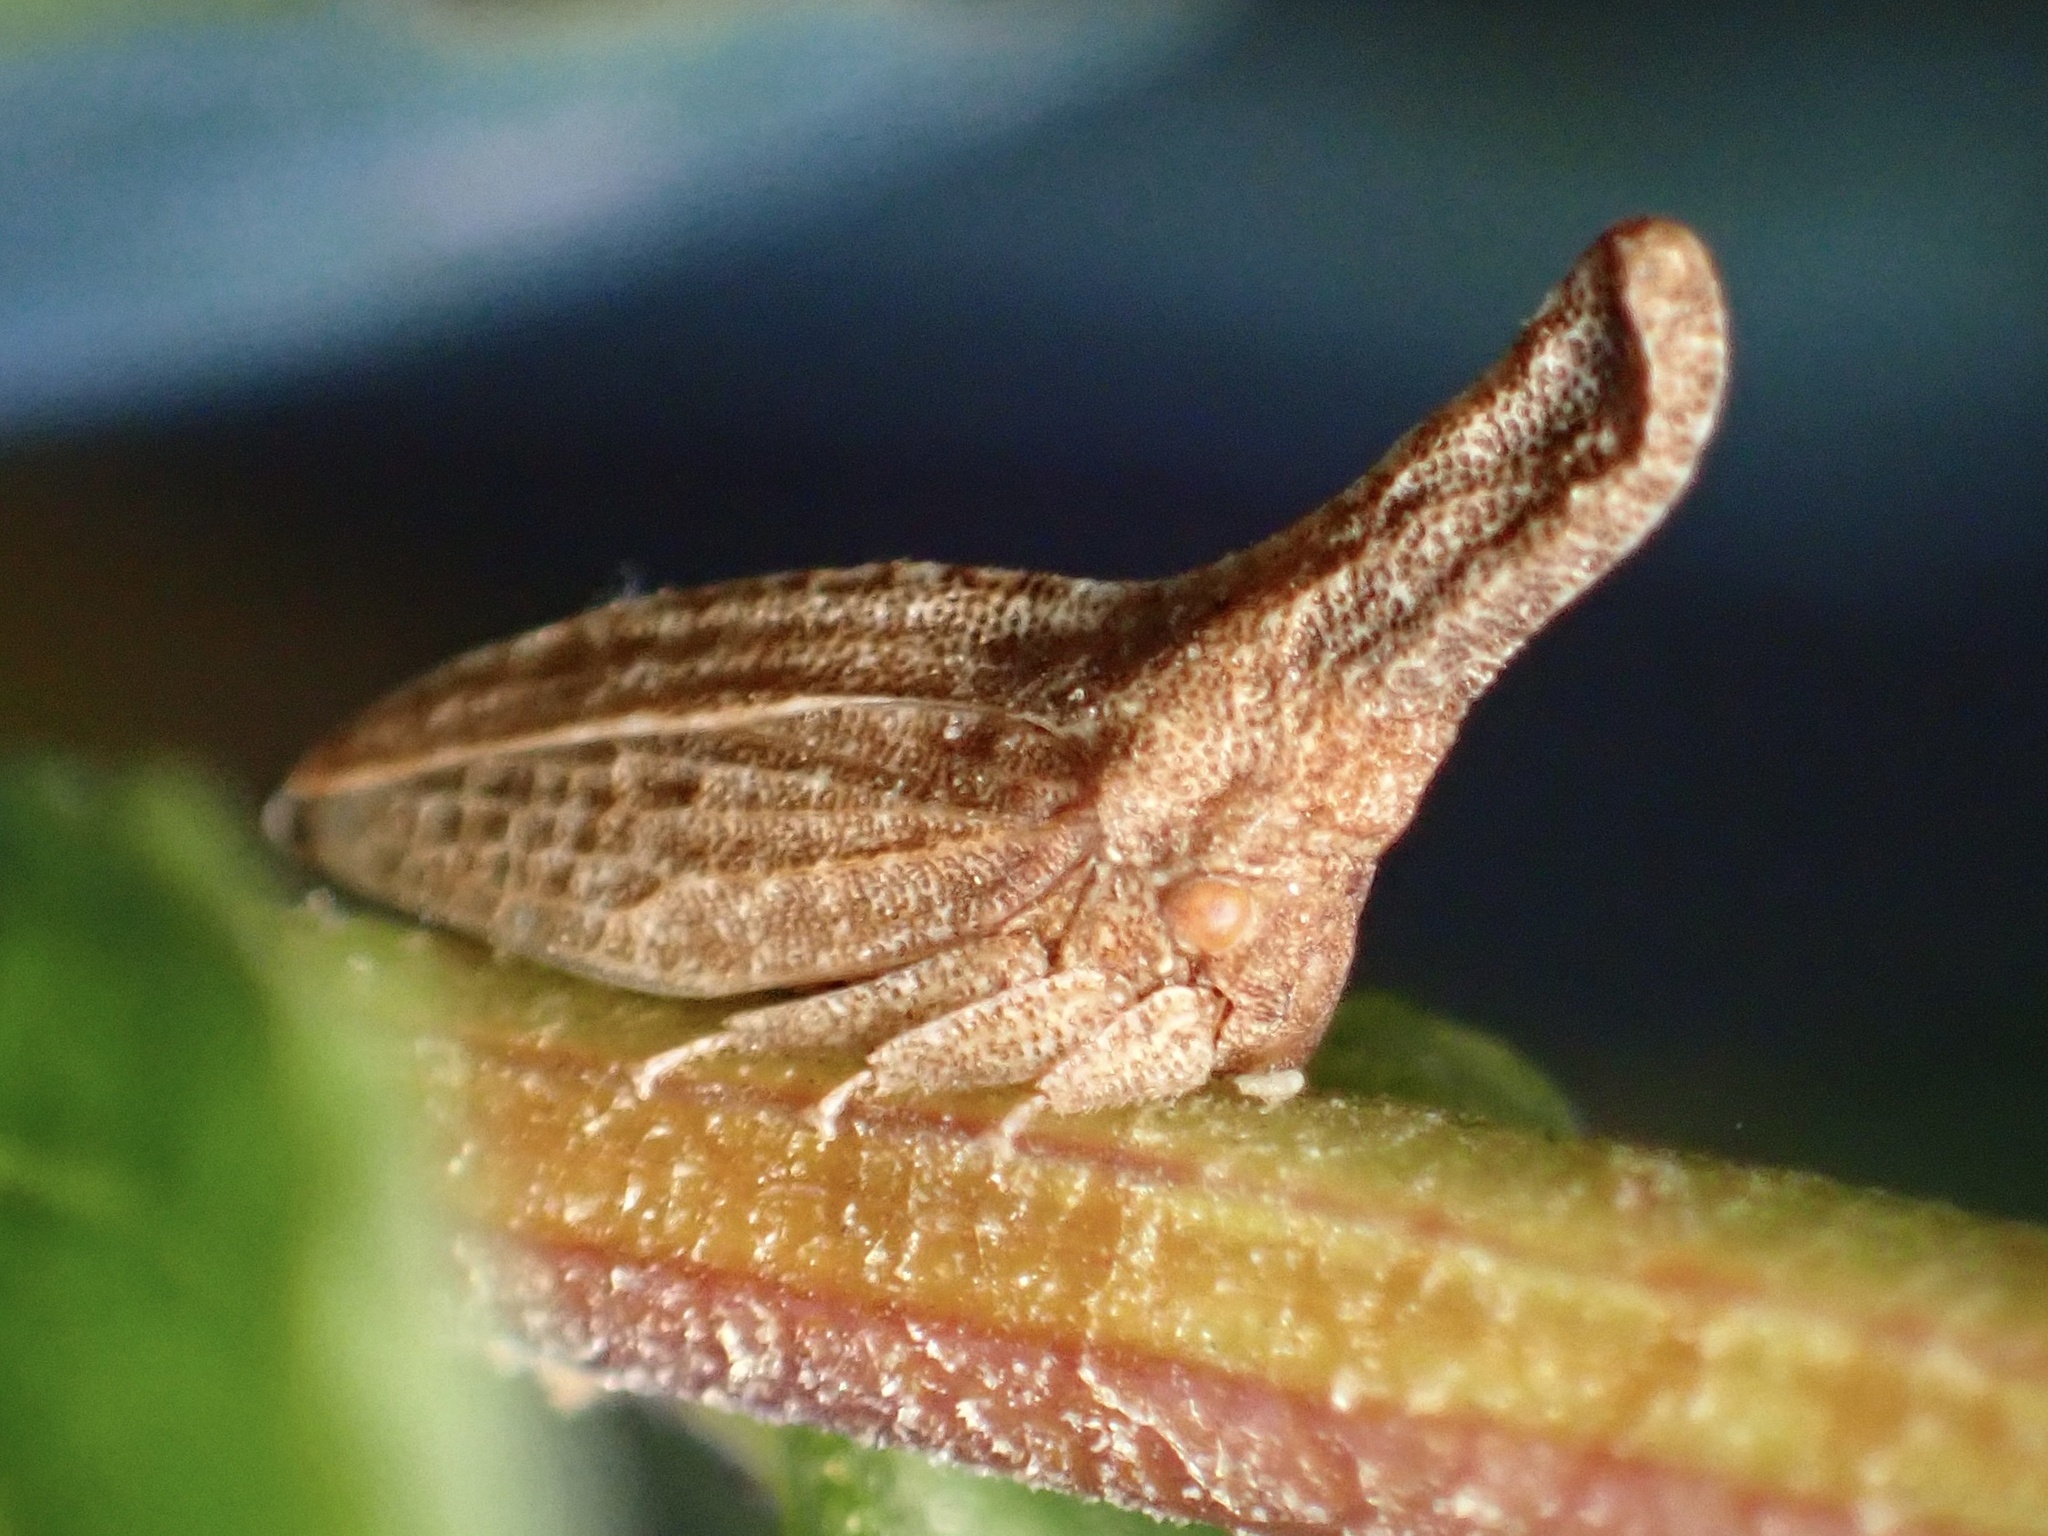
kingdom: Animalia
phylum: Arthropoda
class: Insecta
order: Hemiptera
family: Membracidae
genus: Philya
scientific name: Philya californensis
